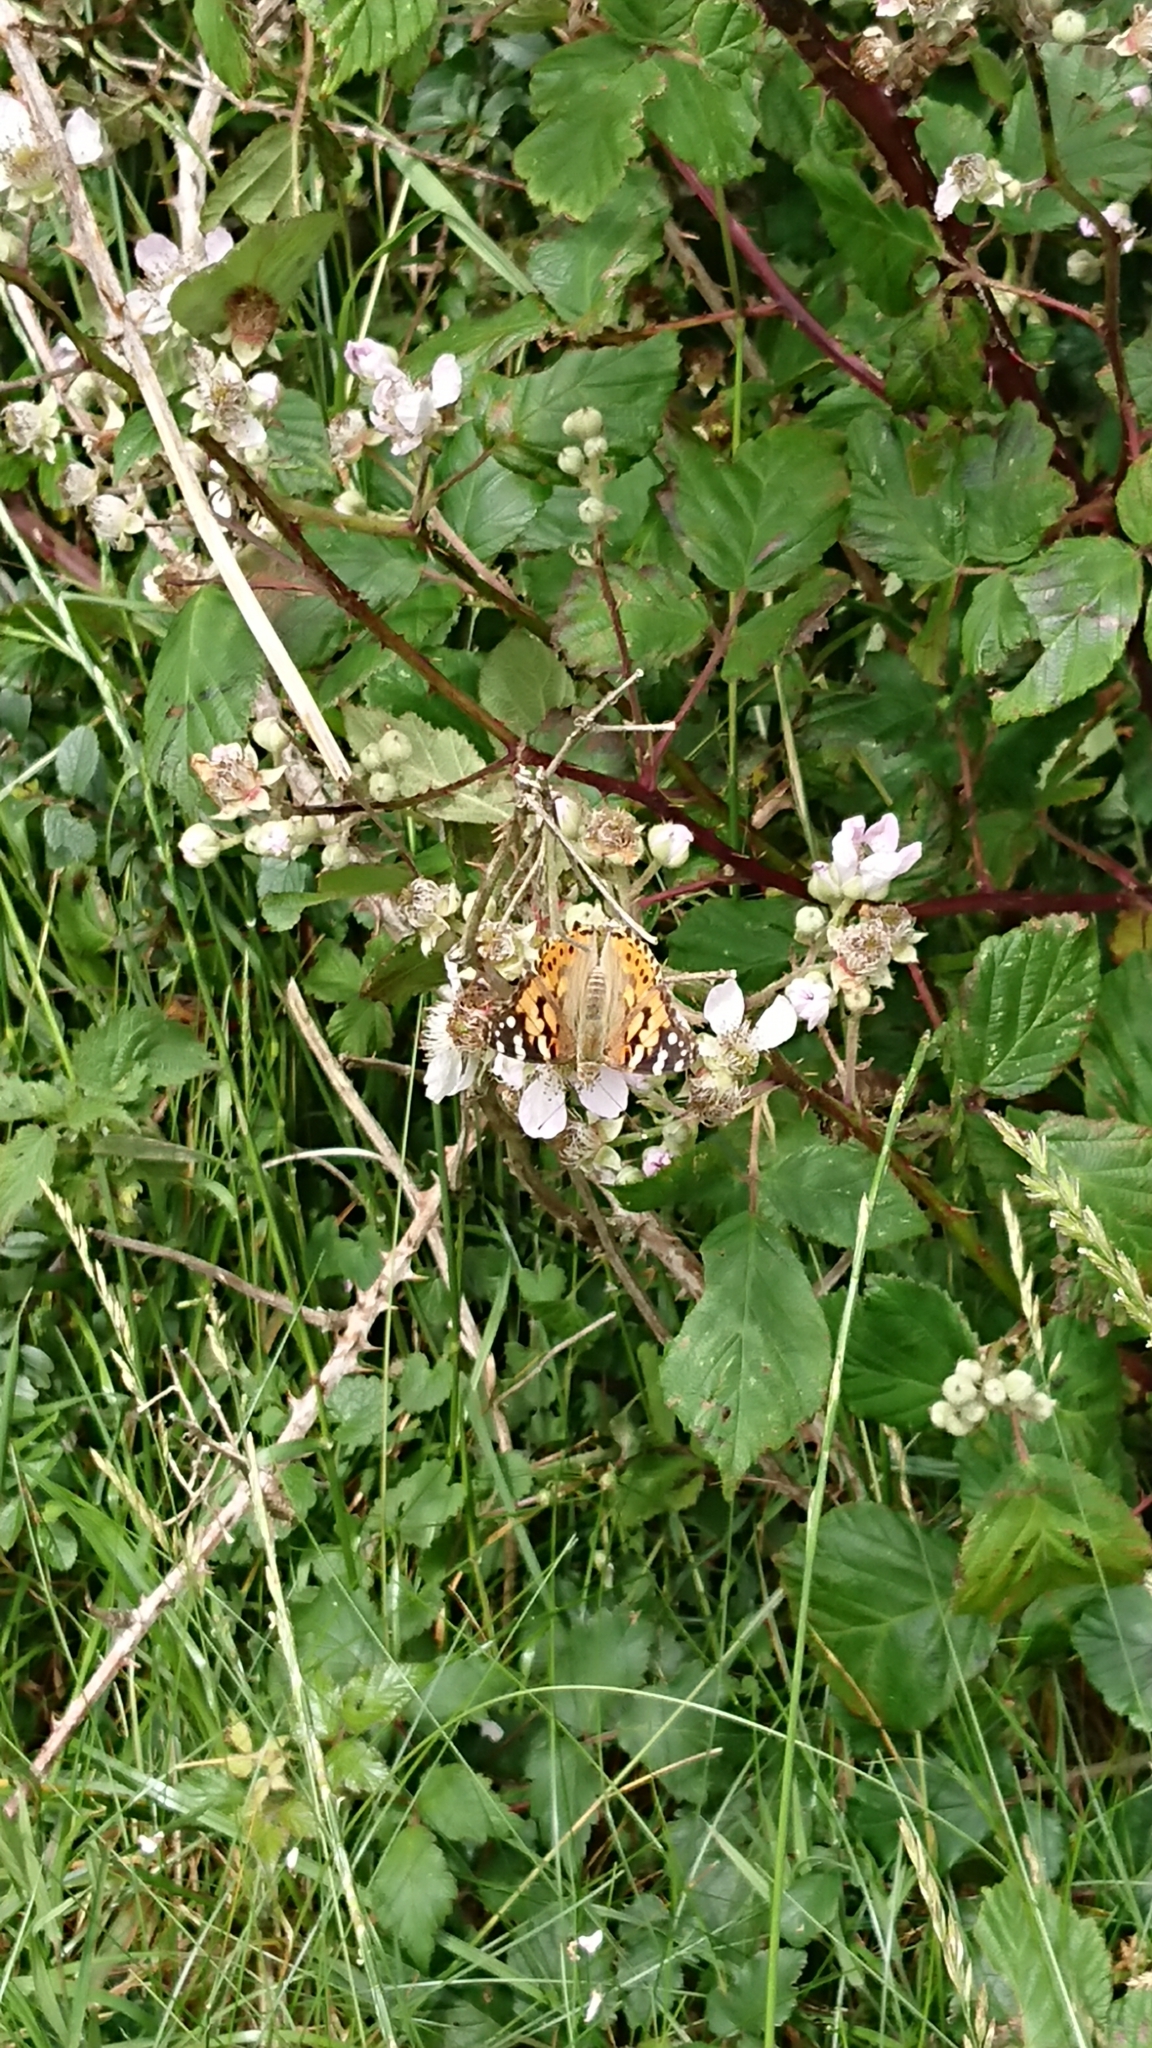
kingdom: Animalia
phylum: Arthropoda
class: Insecta
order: Lepidoptera
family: Nymphalidae
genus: Vanessa
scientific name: Vanessa cardui
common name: Painted lady
